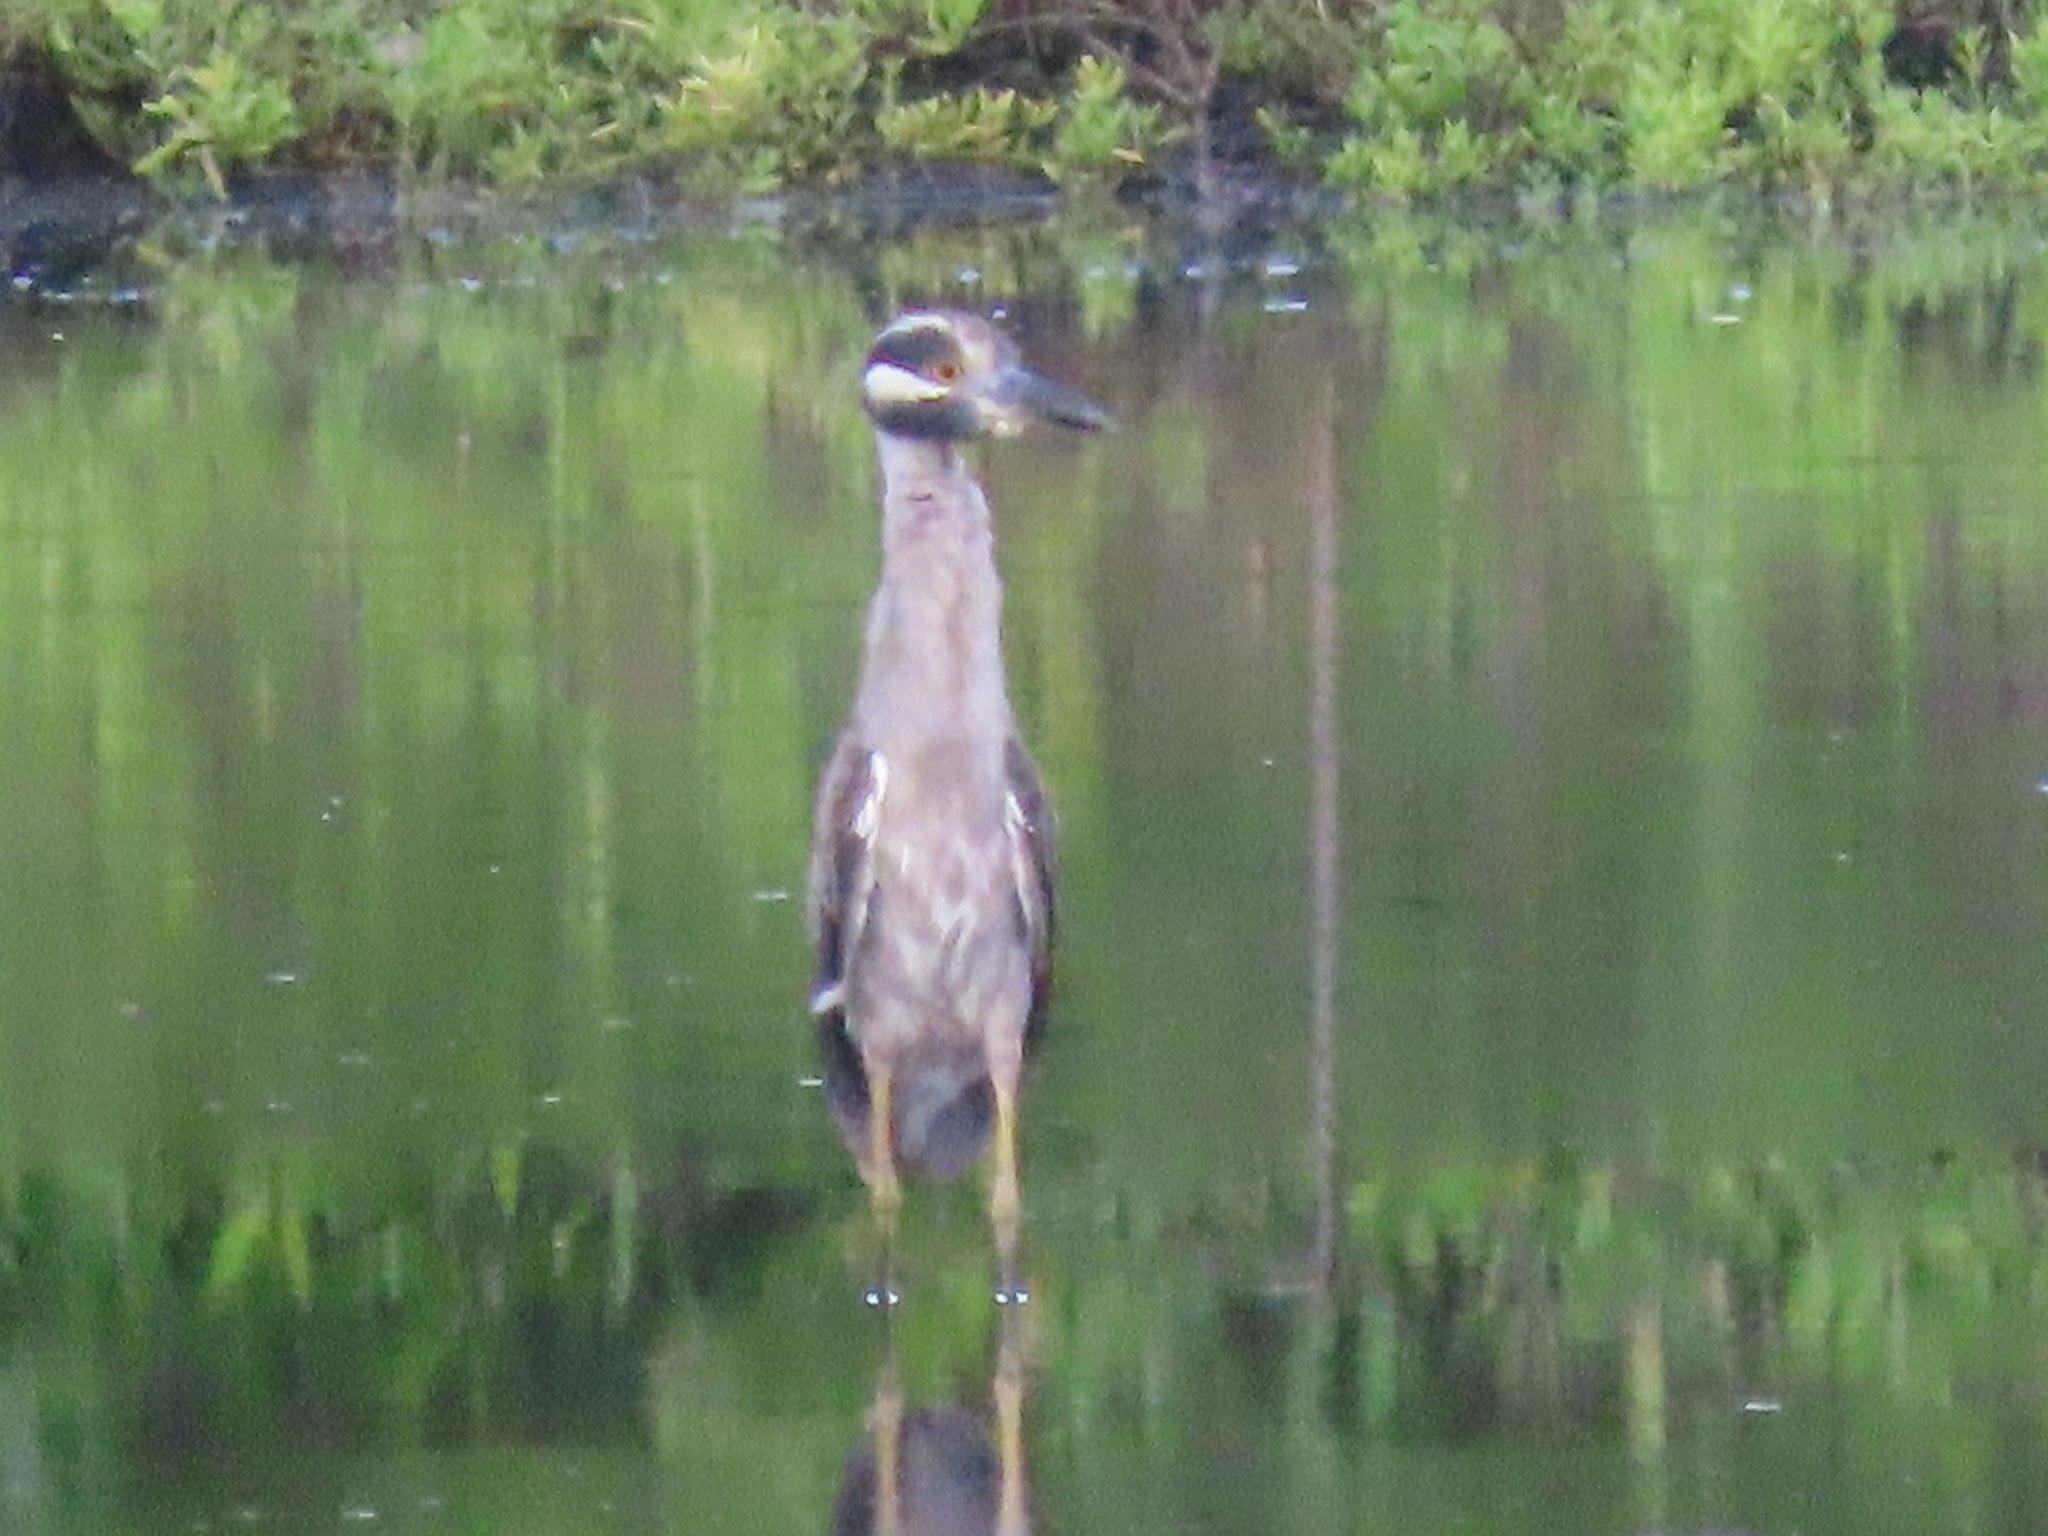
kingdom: Animalia
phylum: Chordata
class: Aves
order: Pelecaniformes
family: Ardeidae
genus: Nyctanassa
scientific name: Nyctanassa violacea
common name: Yellow-crowned night heron
